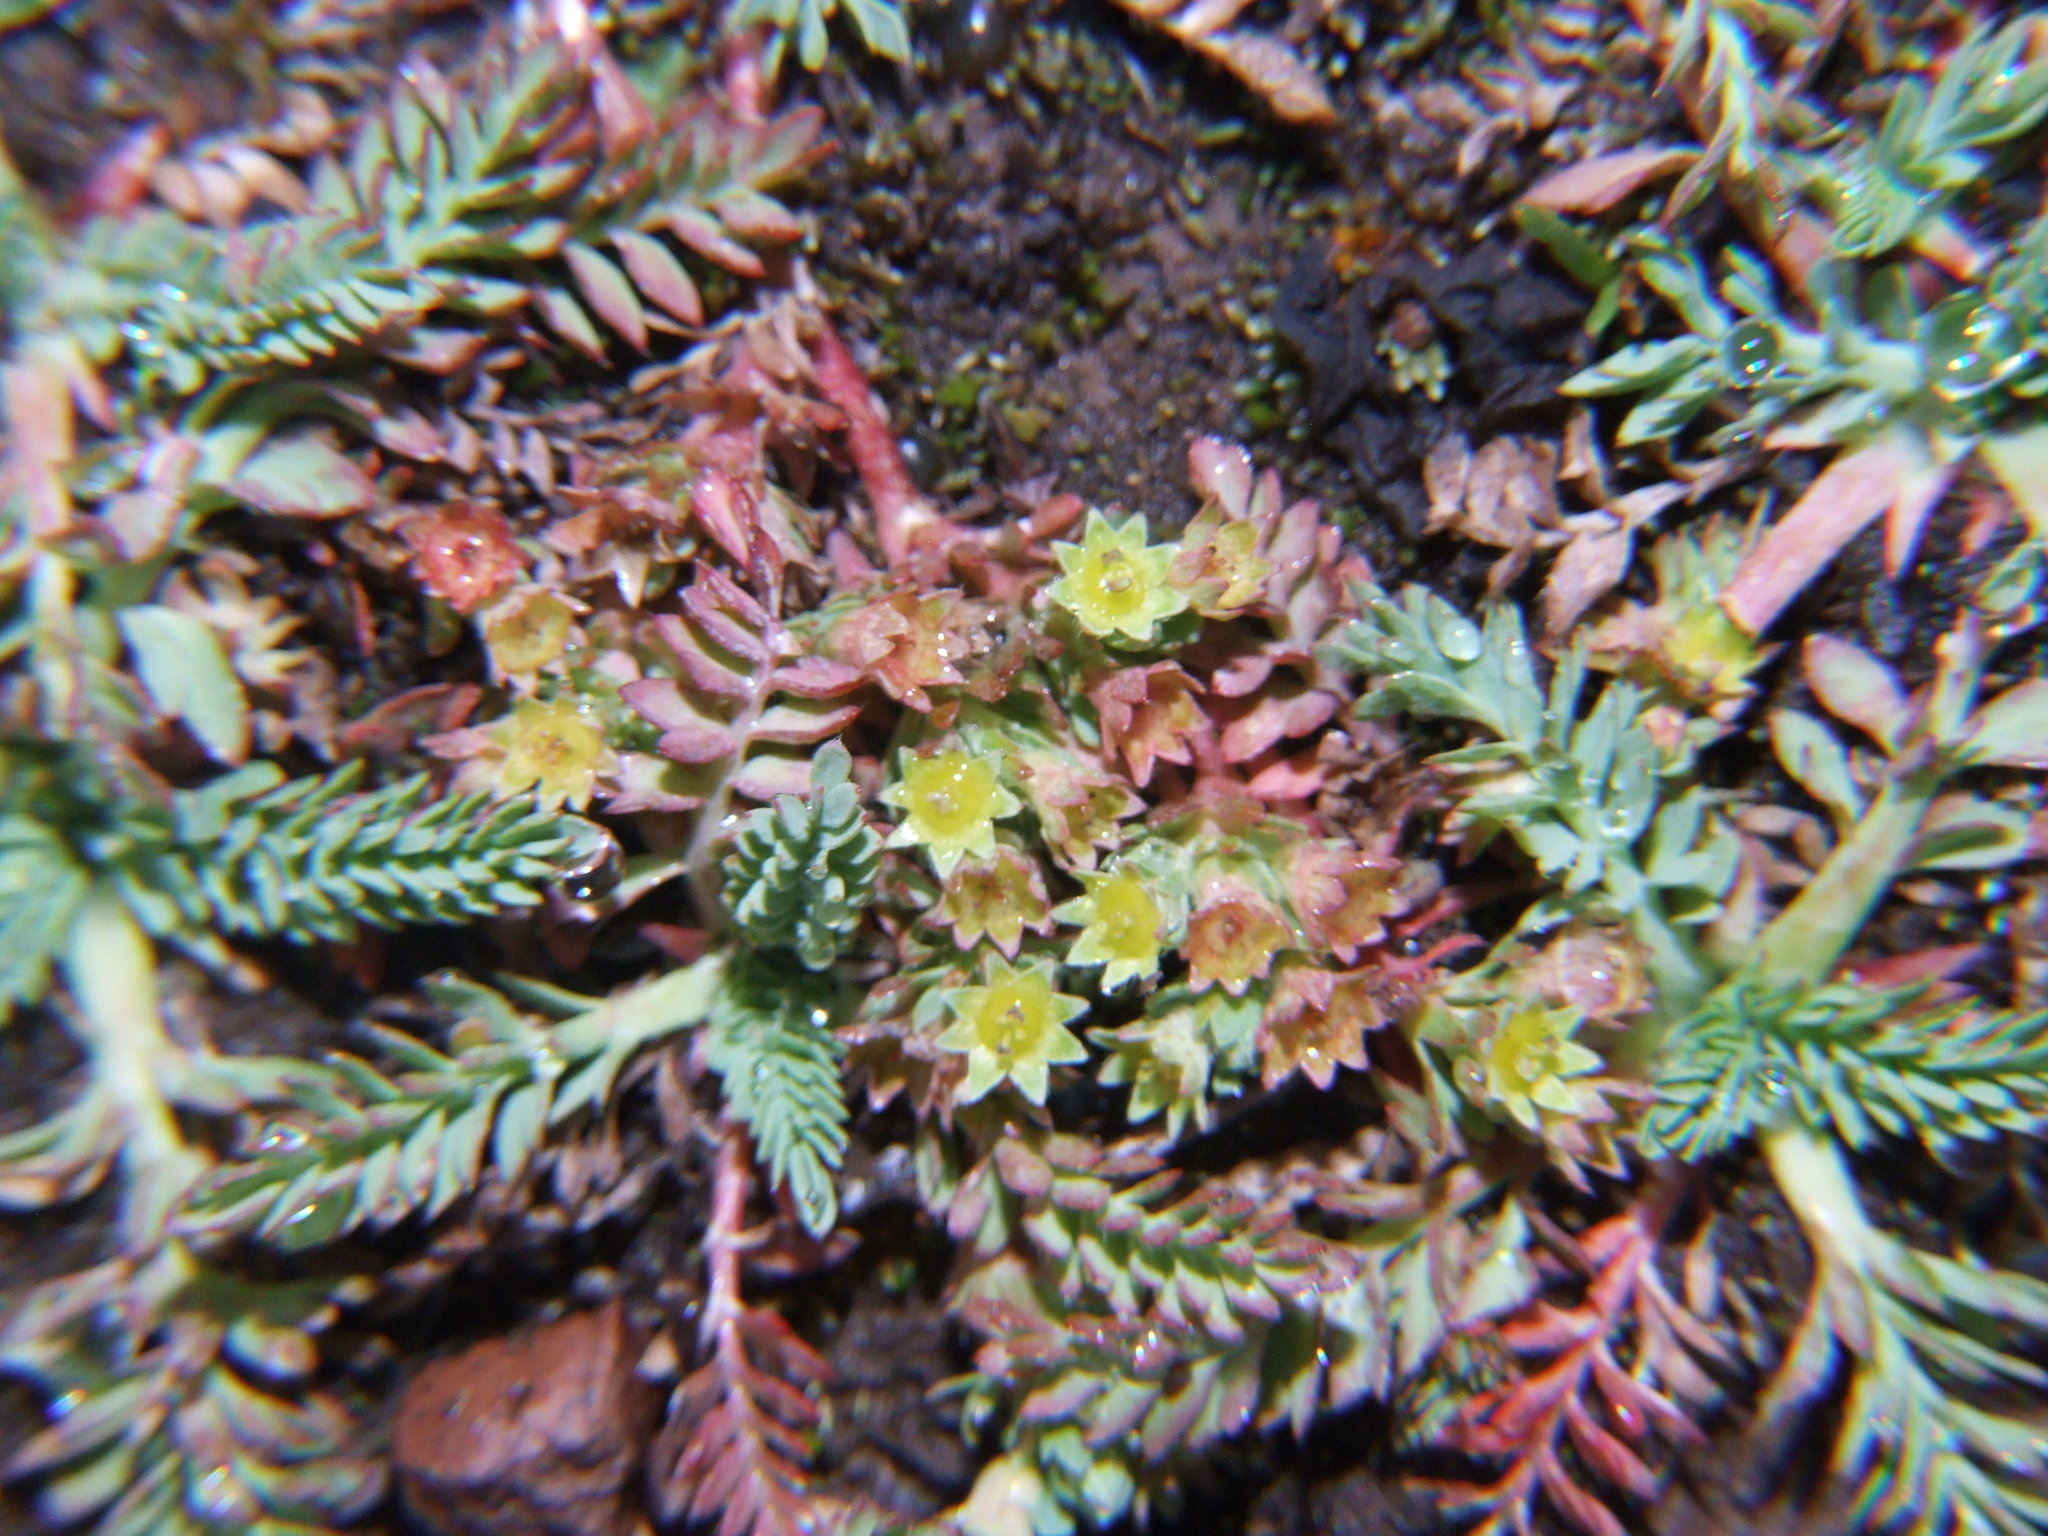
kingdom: Plantae
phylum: Tracheophyta
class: Magnoliopsida
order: Rosales
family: Rosaceae
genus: Lachemilla
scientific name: Lachemilla
